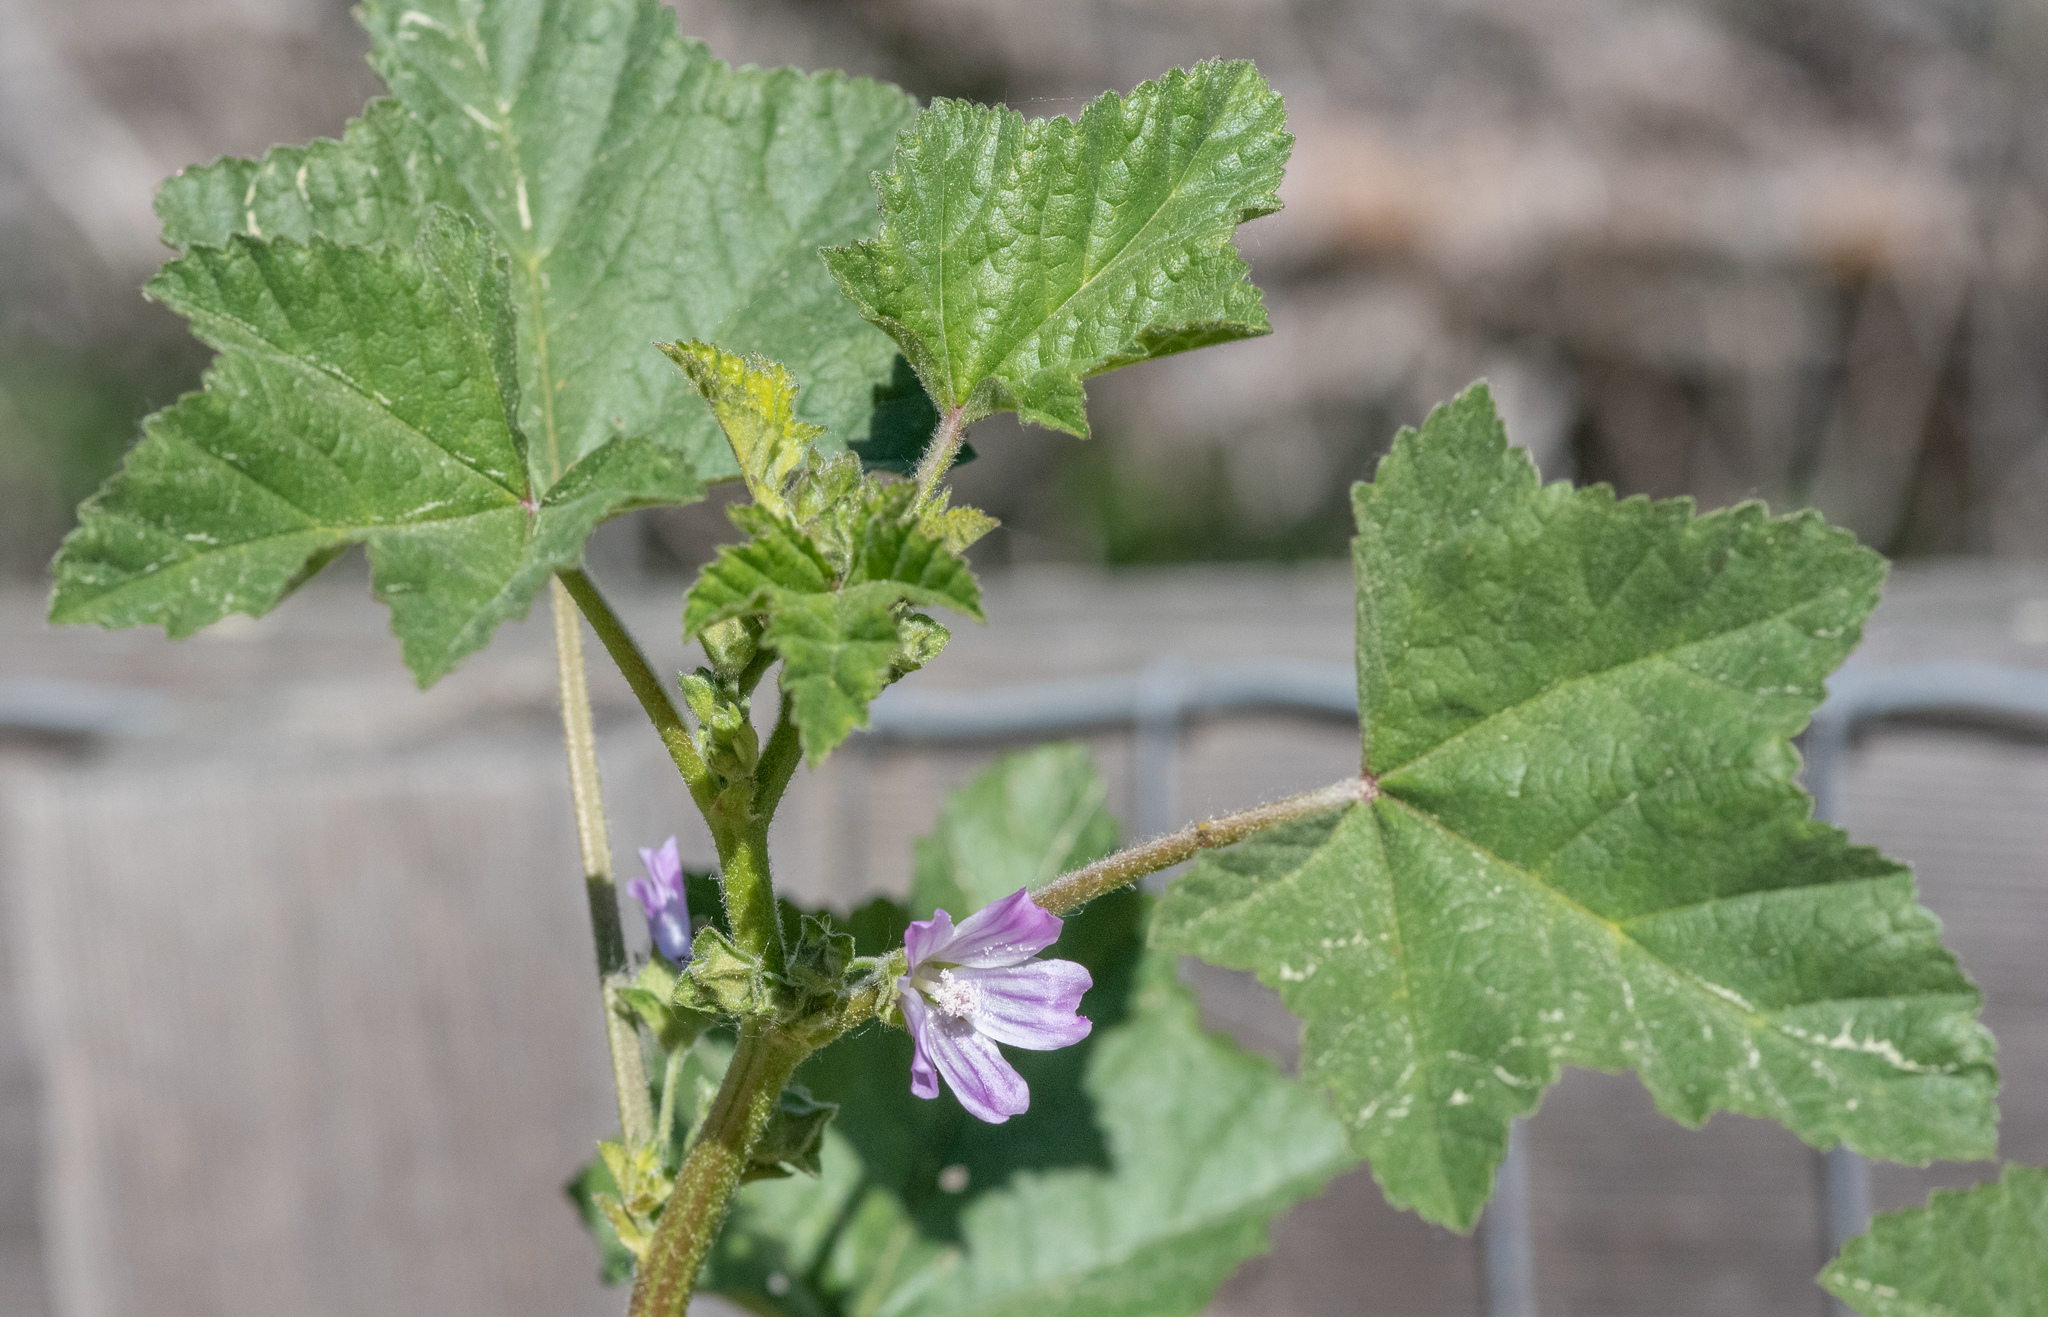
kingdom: Plantae
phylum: Tracheophyta
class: Magnoliopsida
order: Malvales
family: Malvaceae
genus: Malva
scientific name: Malva multiflora
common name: Cheeseweed
